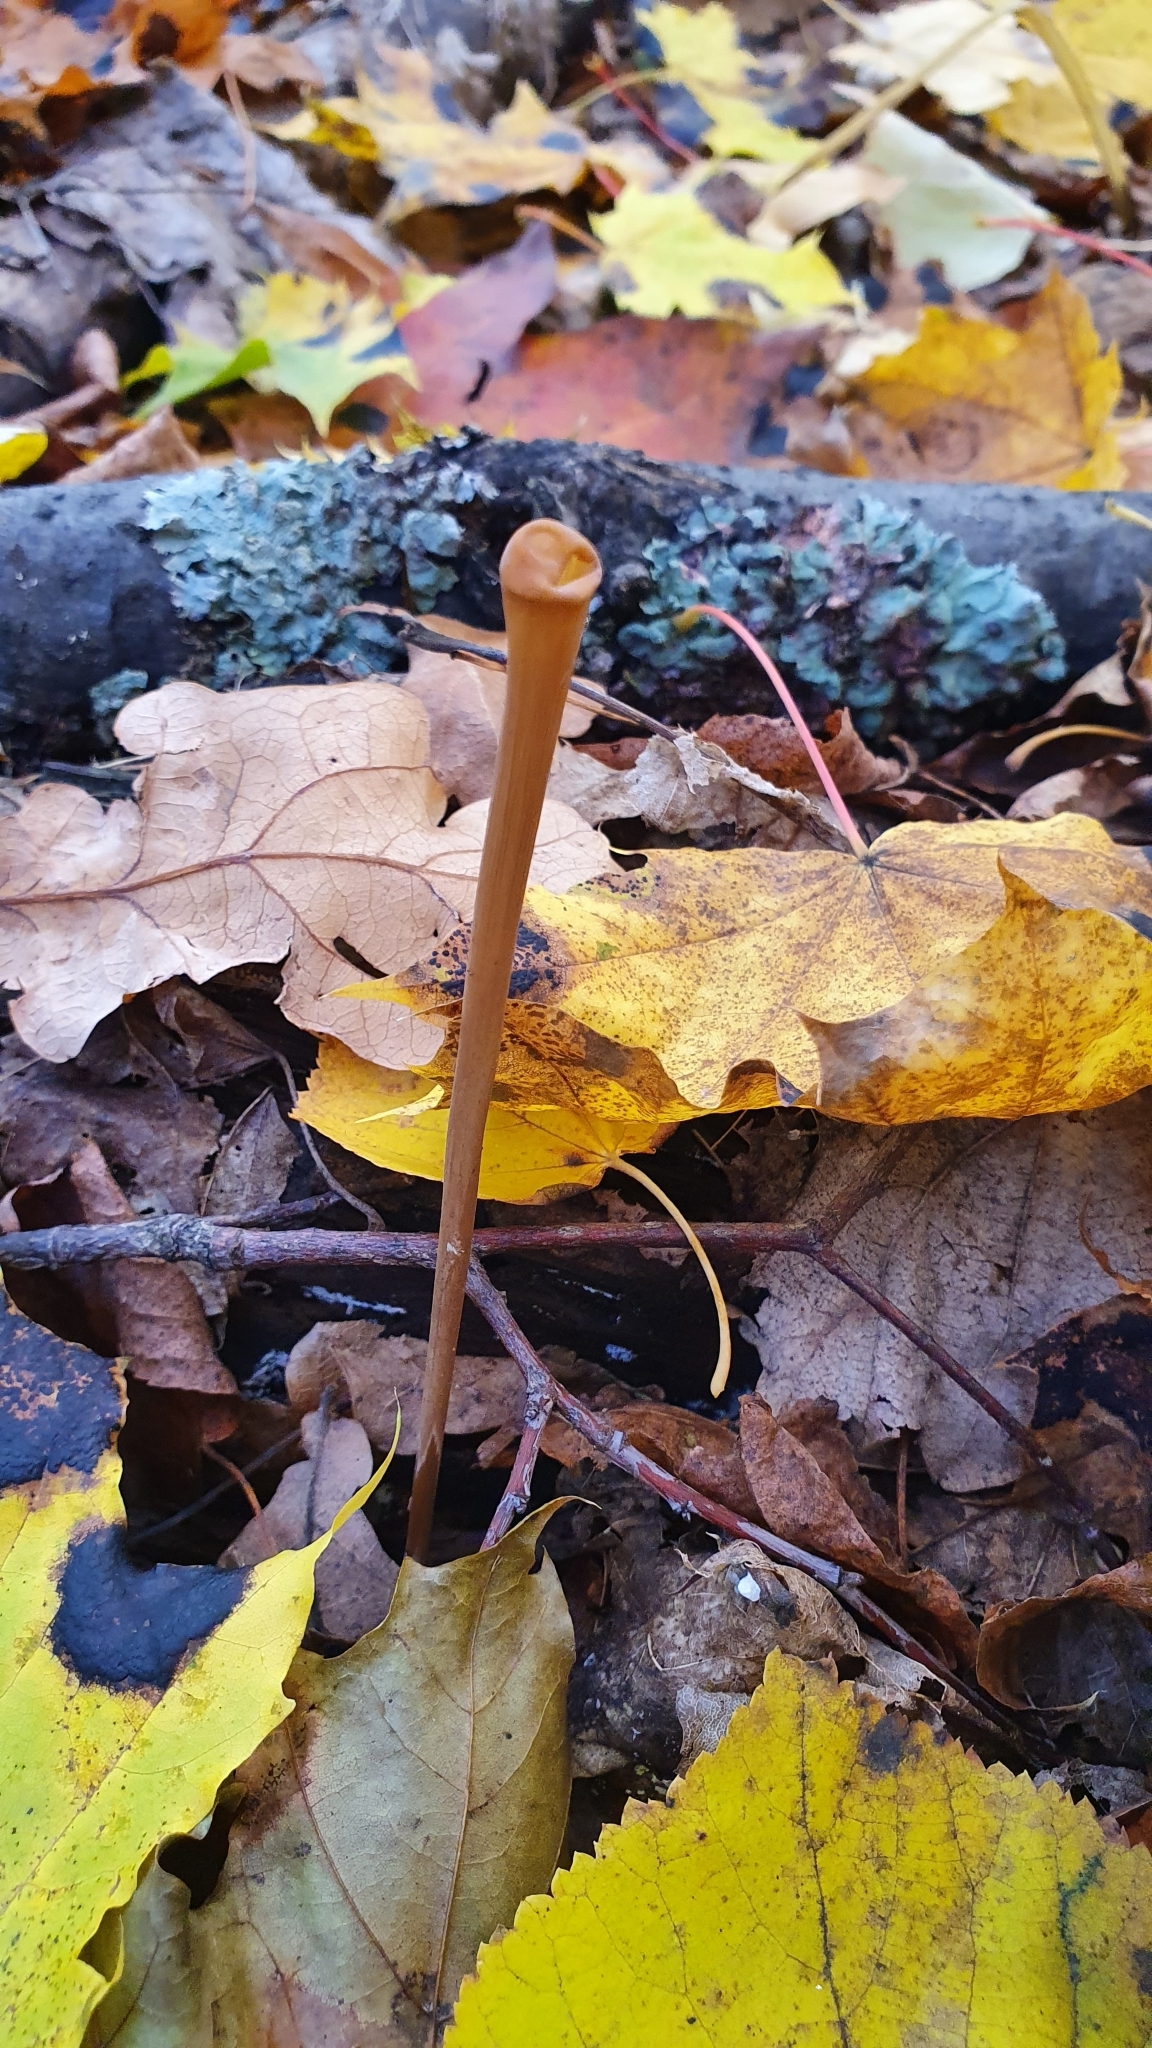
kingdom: Fungi
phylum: Basidiomycota
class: Agaricomycetes
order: Agaricales
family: Typhulaceae
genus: Typhula
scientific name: Typhula fistulosa
